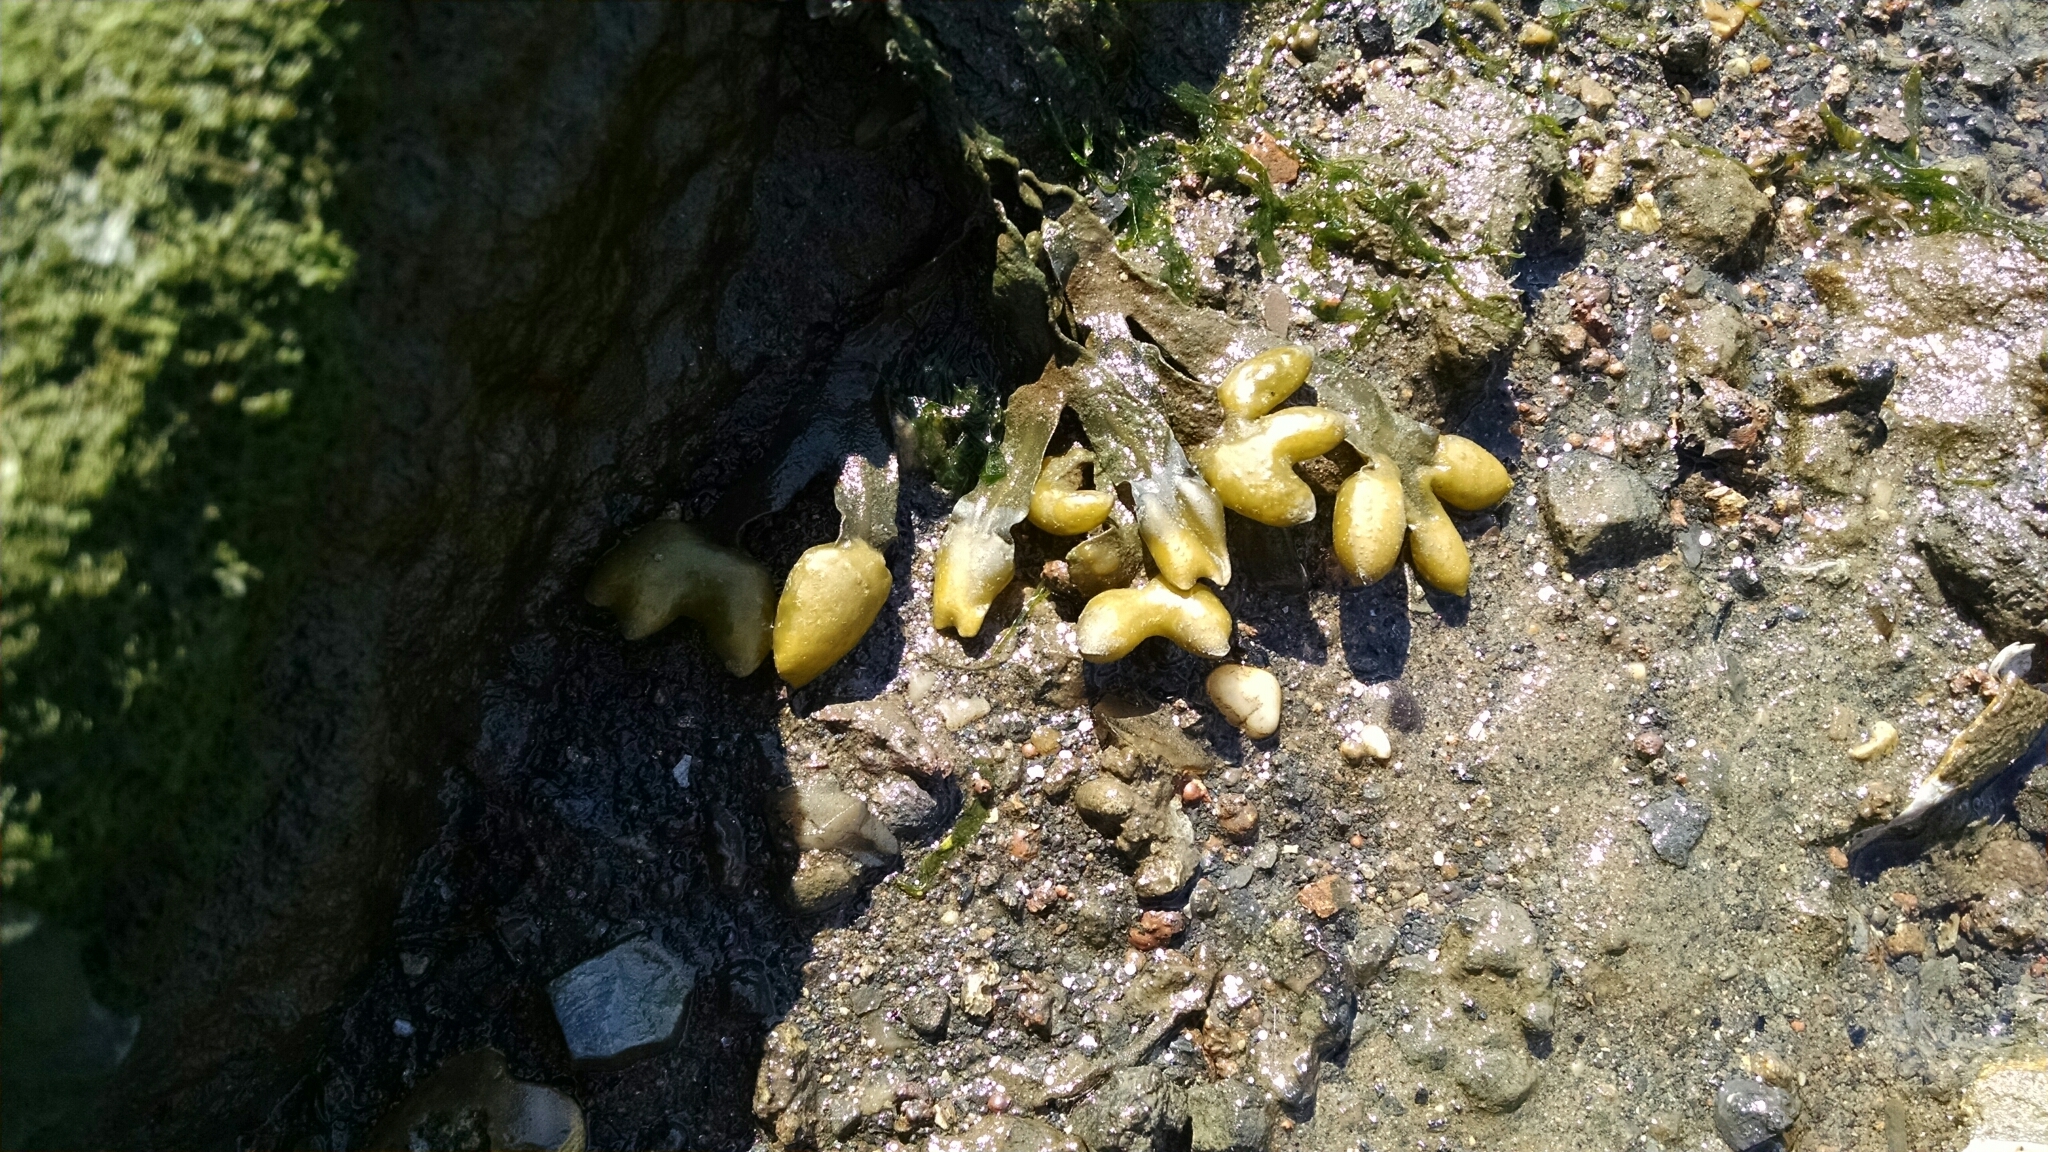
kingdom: Chromista
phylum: Ochrophyta
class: Phaeophyceae
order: Fucales
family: Fucaceae
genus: Fucus
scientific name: Fucus distichus
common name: Rockweed
